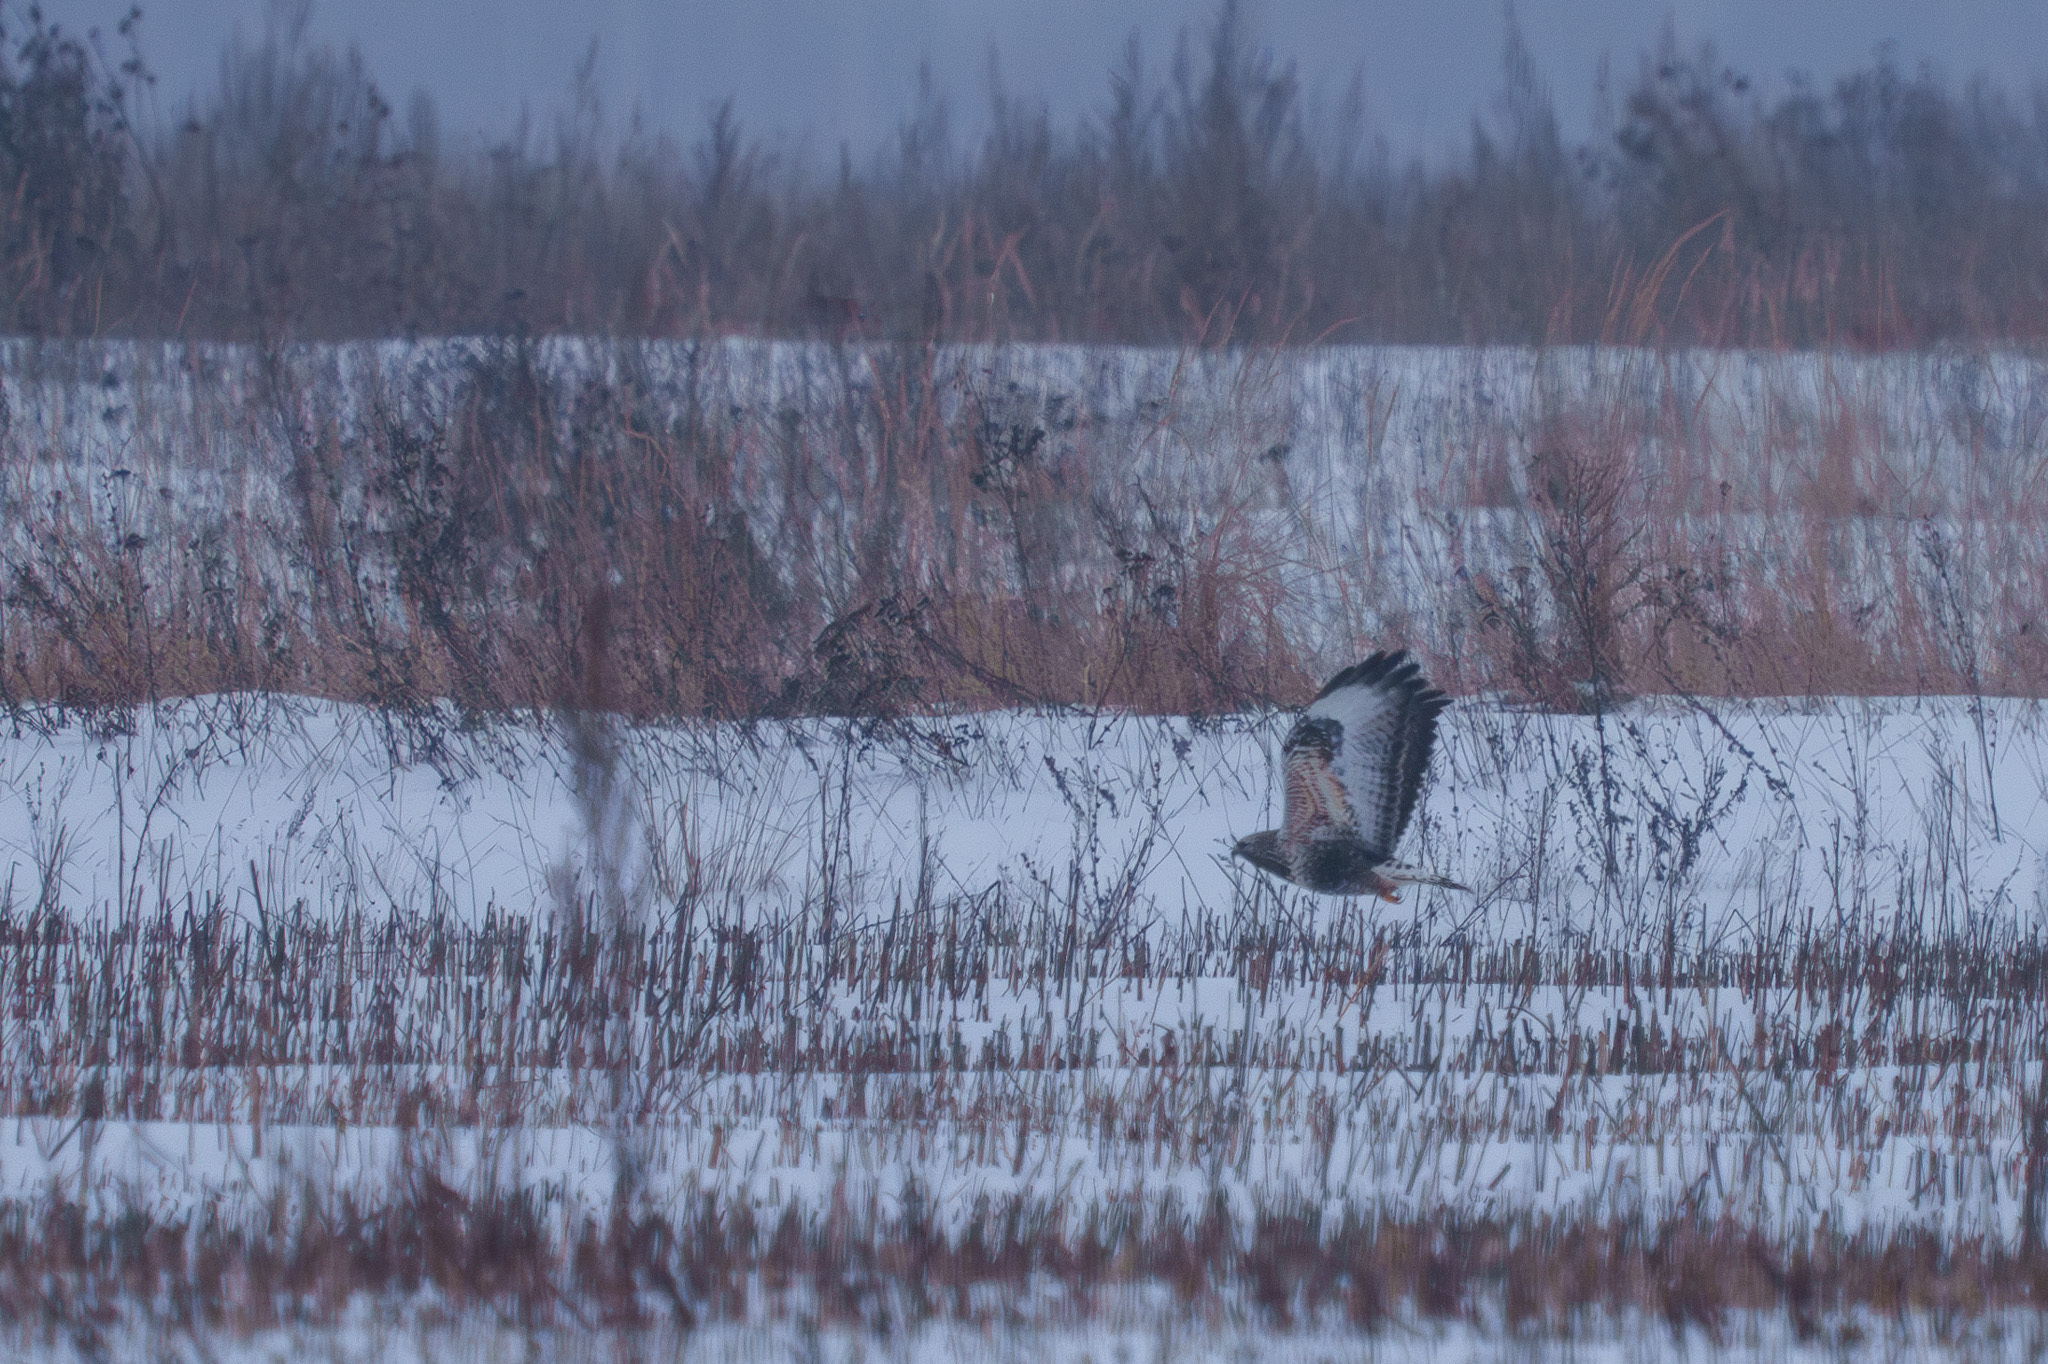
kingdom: Animalia
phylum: Chordata
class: Aves
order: Accipitriformes
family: Accipitridae
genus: Buteo
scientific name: Buteo lagopus
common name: Rough-legged buzzard
